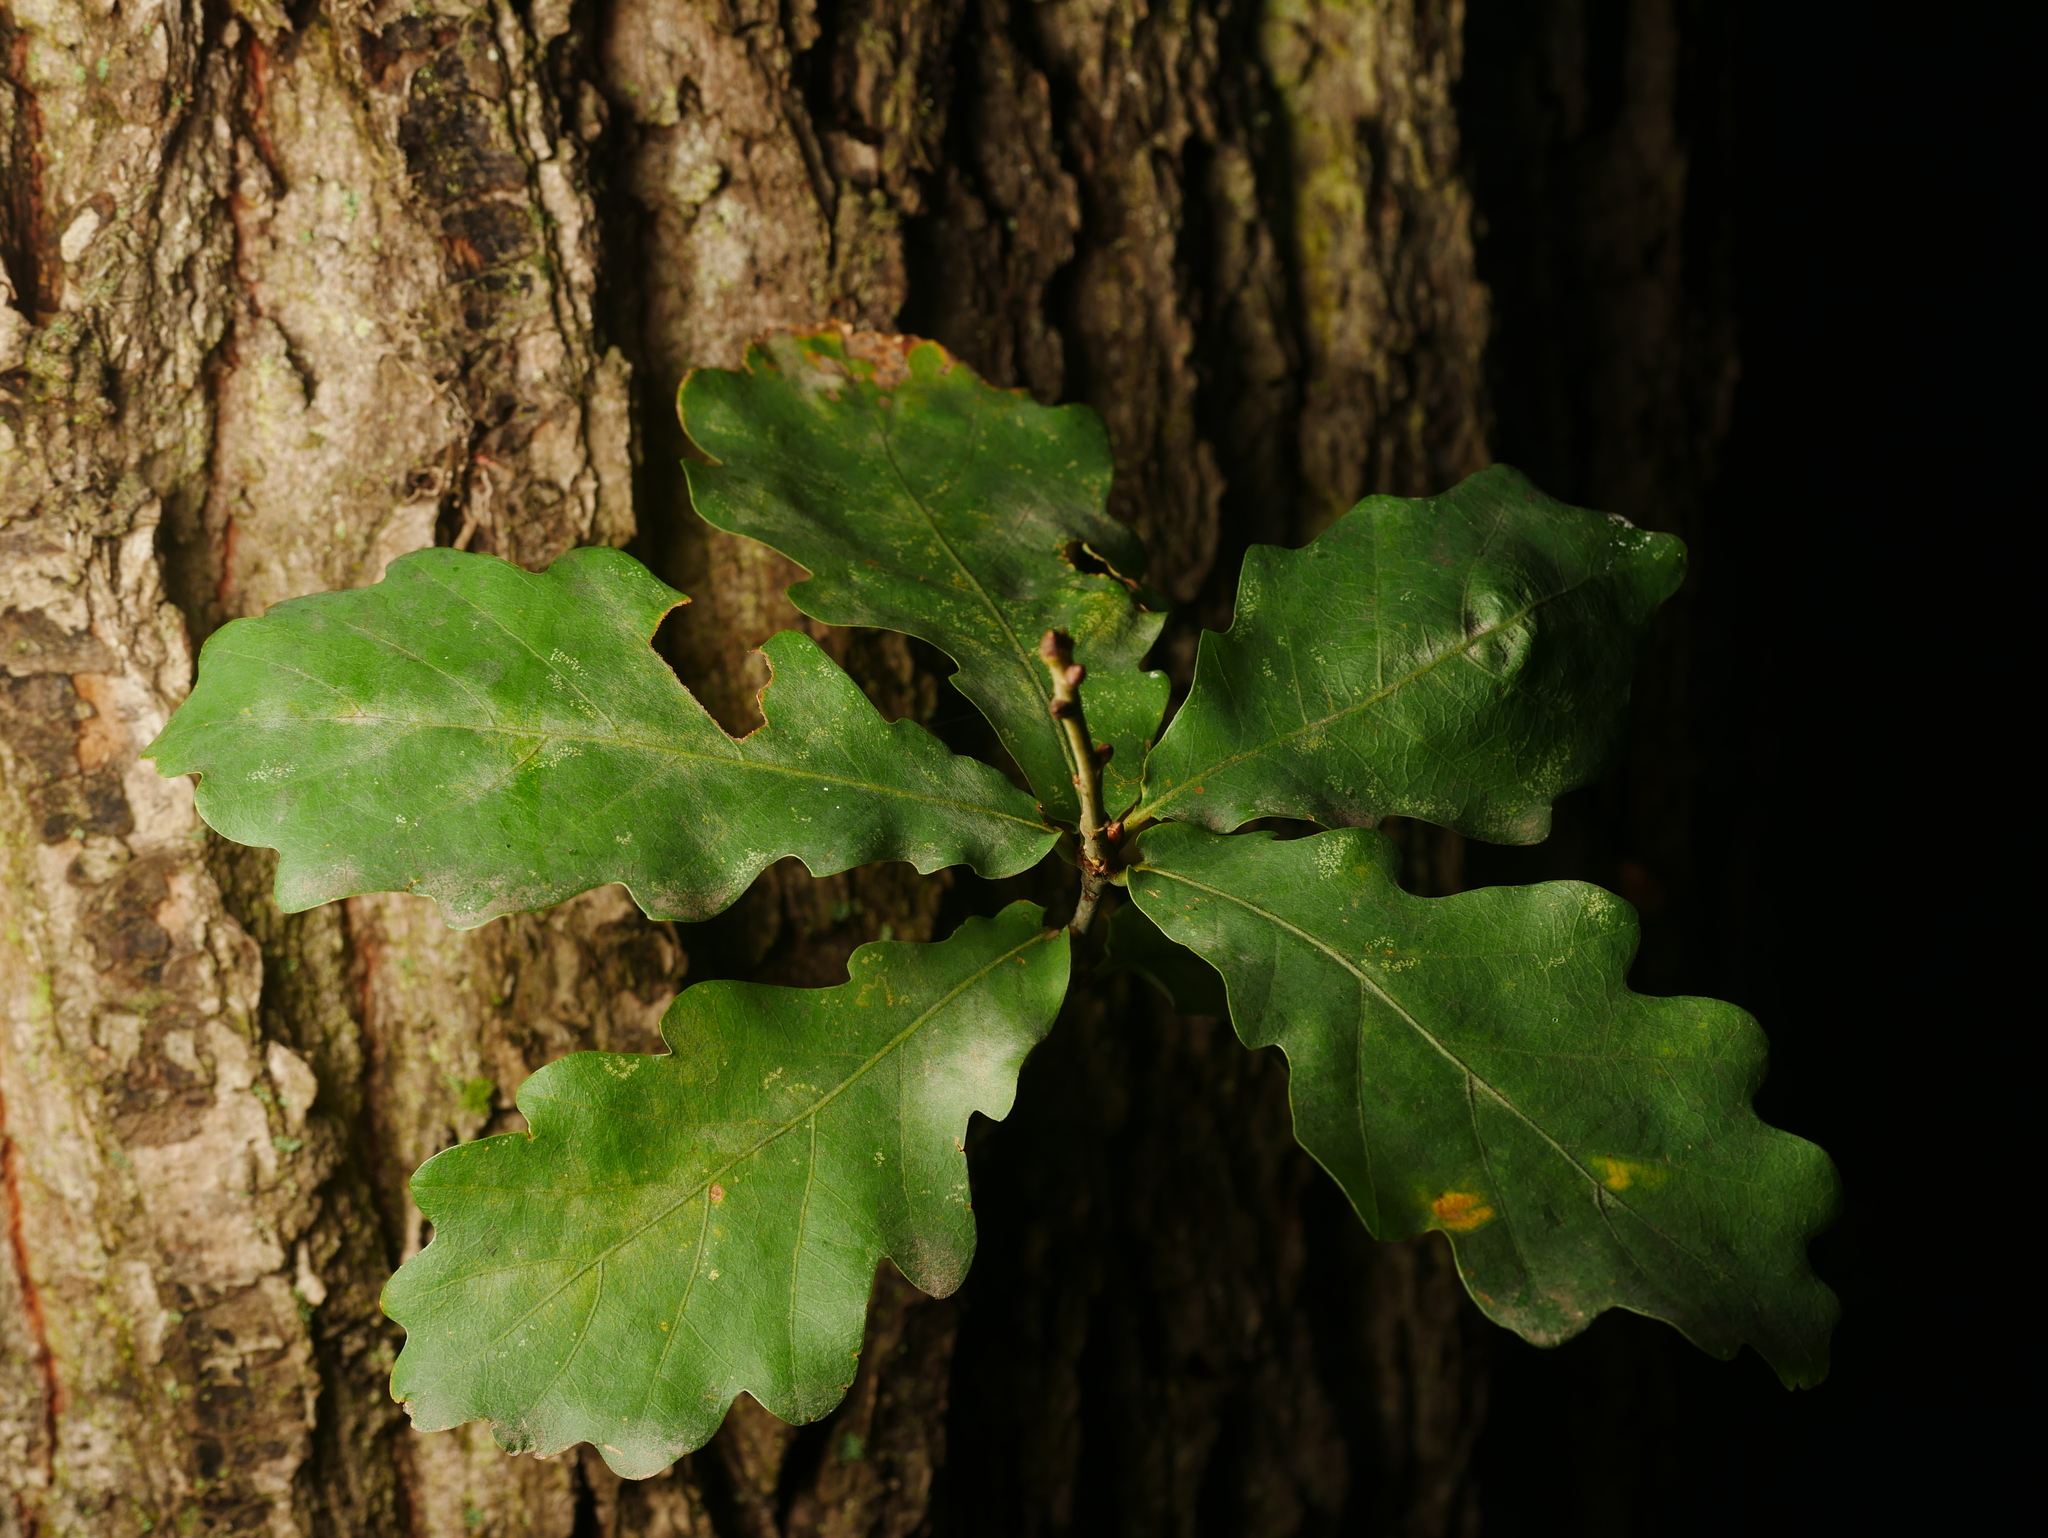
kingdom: Plantae
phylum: Tracheophyta
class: Magnoliopsida
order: Fagales
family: Fagaceae
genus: Quercus
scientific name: Quercus petraea
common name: Sessile oak
